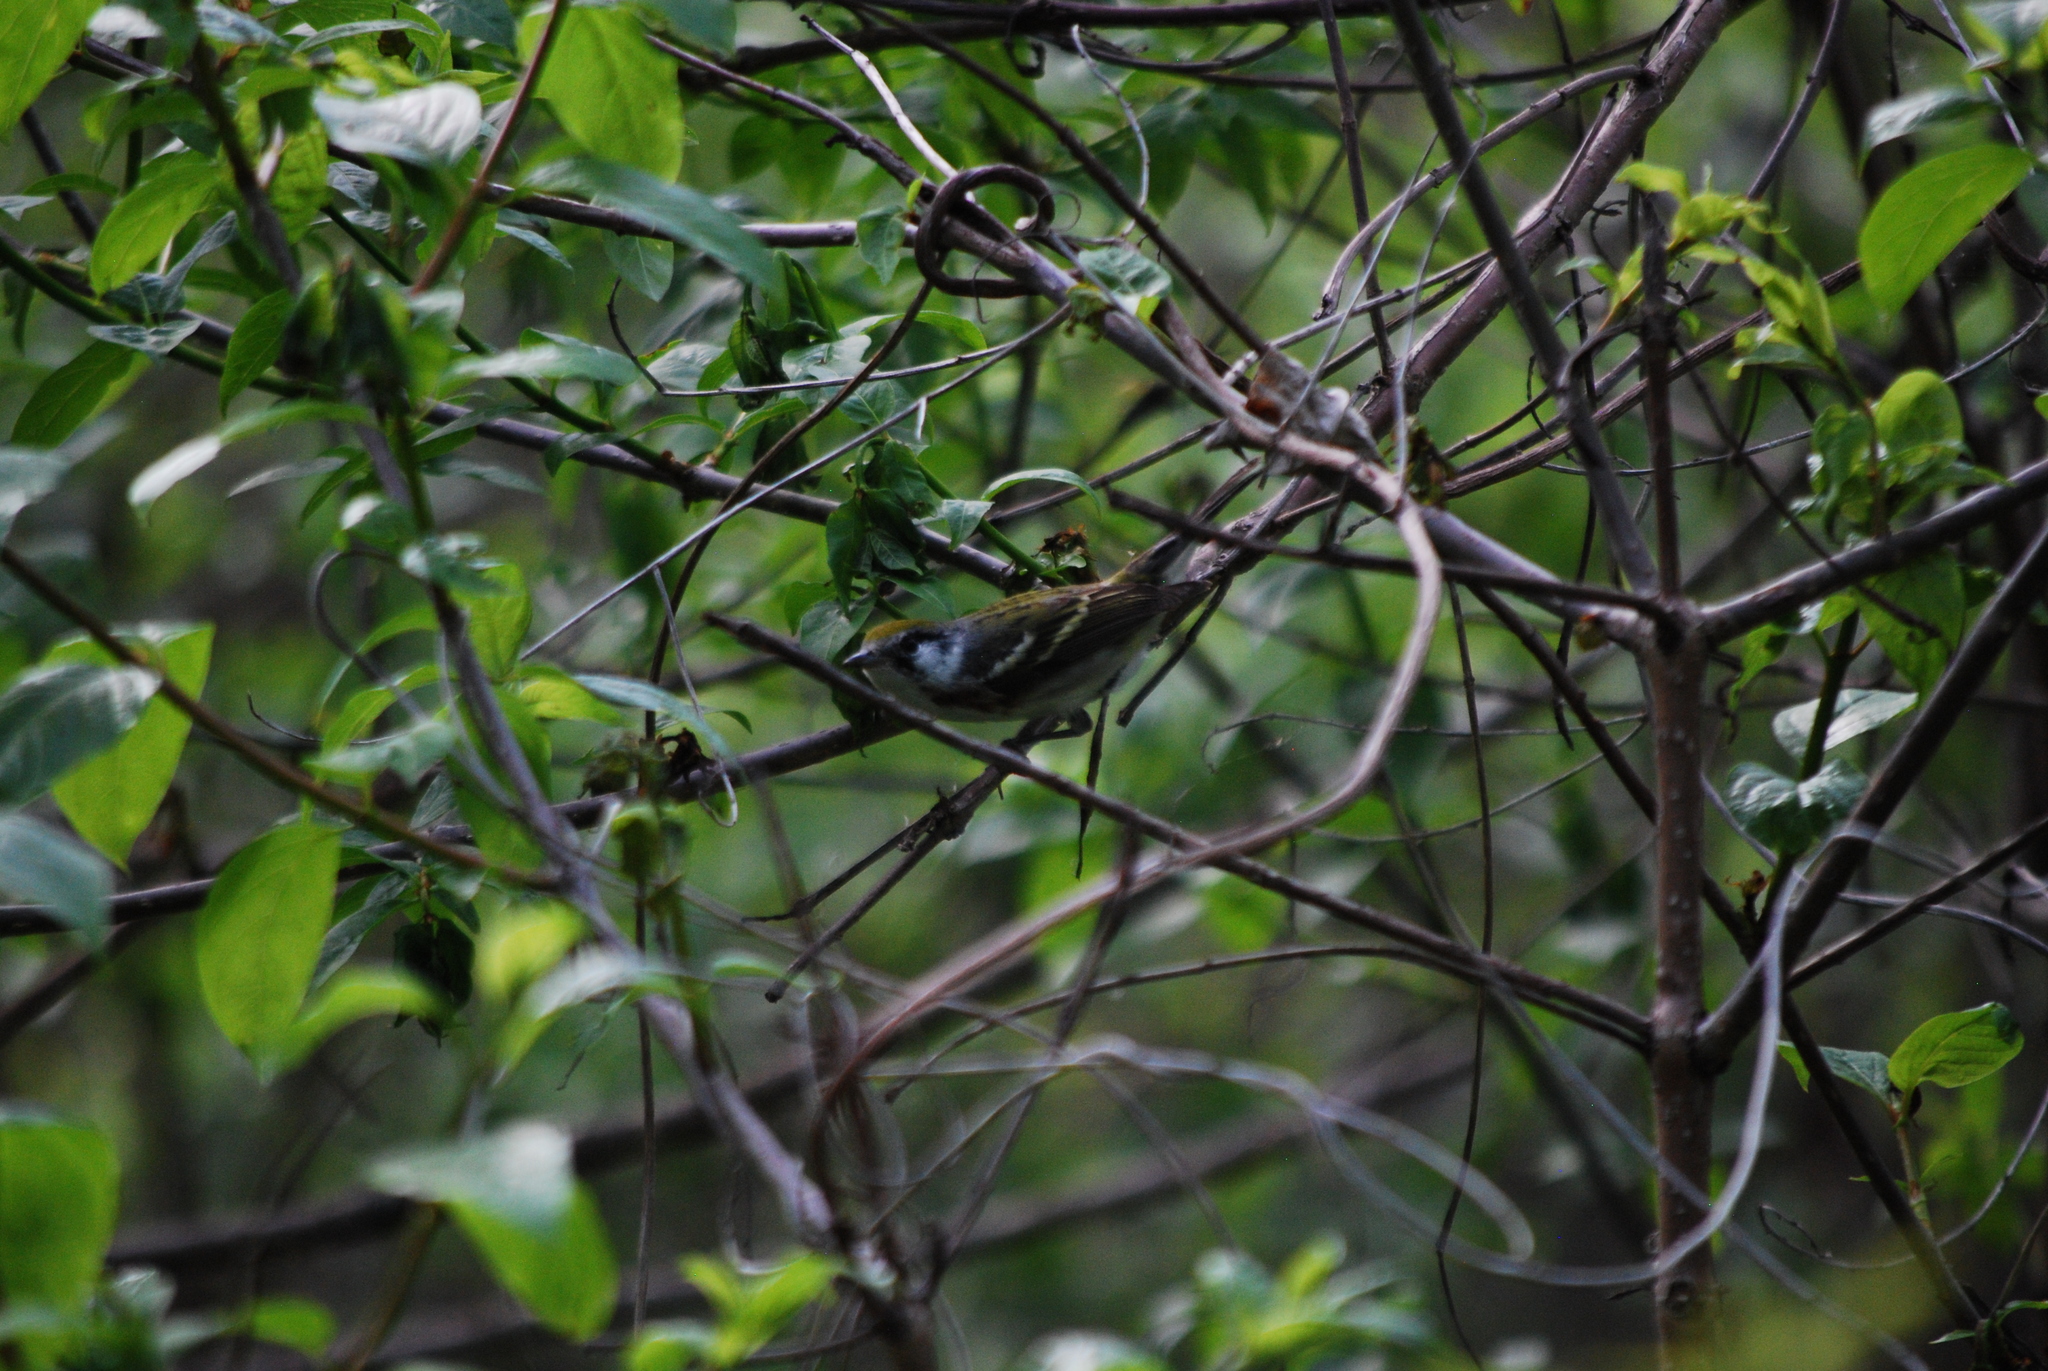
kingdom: Animalia
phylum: Chordata
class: Aves
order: Passeriformes
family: Parulidae
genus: Setophaga
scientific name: Setophaga pensylvanica
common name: Chestnut-sided warbler
